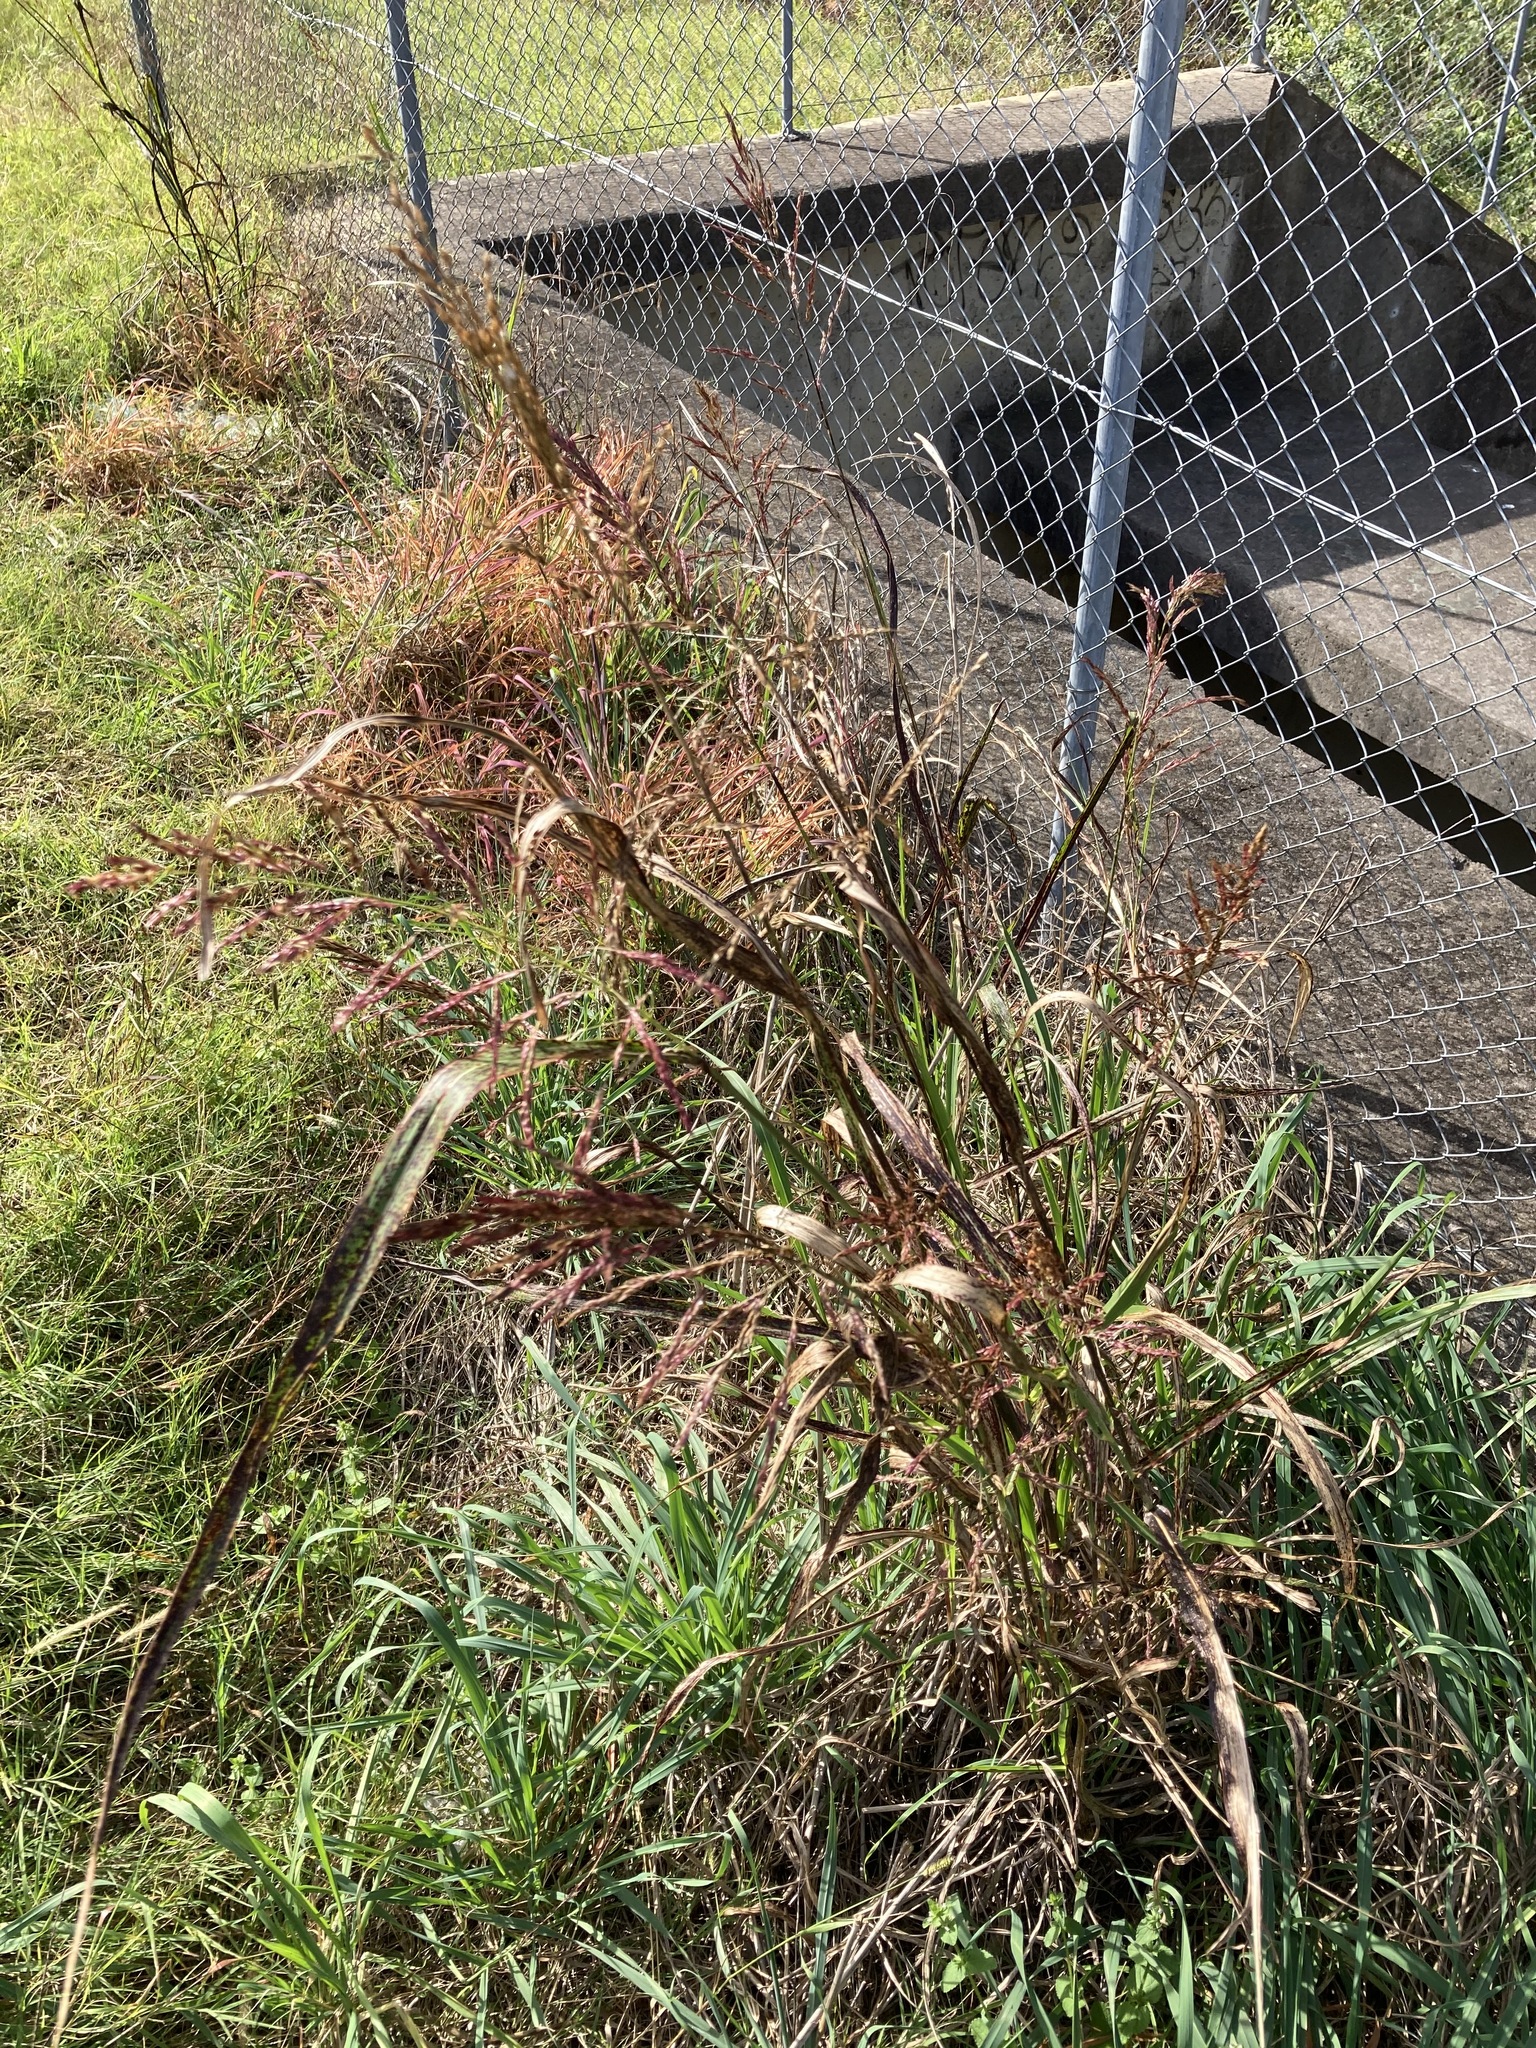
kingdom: Plantae
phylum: Tracheophyta
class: Liliopsida
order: Poales
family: Poaceae
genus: Sorghum
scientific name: Sorghum halepense
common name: Johnson-grass
